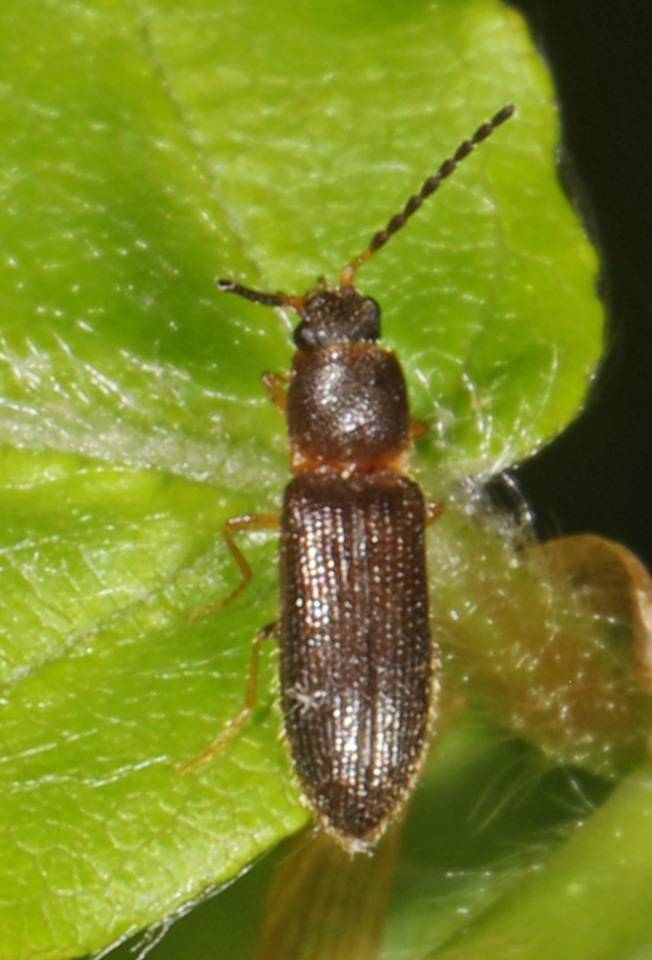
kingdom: Animalia
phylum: Arthropoda
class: Insecta
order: Coleoptera
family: Elateridae
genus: Tetralimonius
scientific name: Tetralimonius
